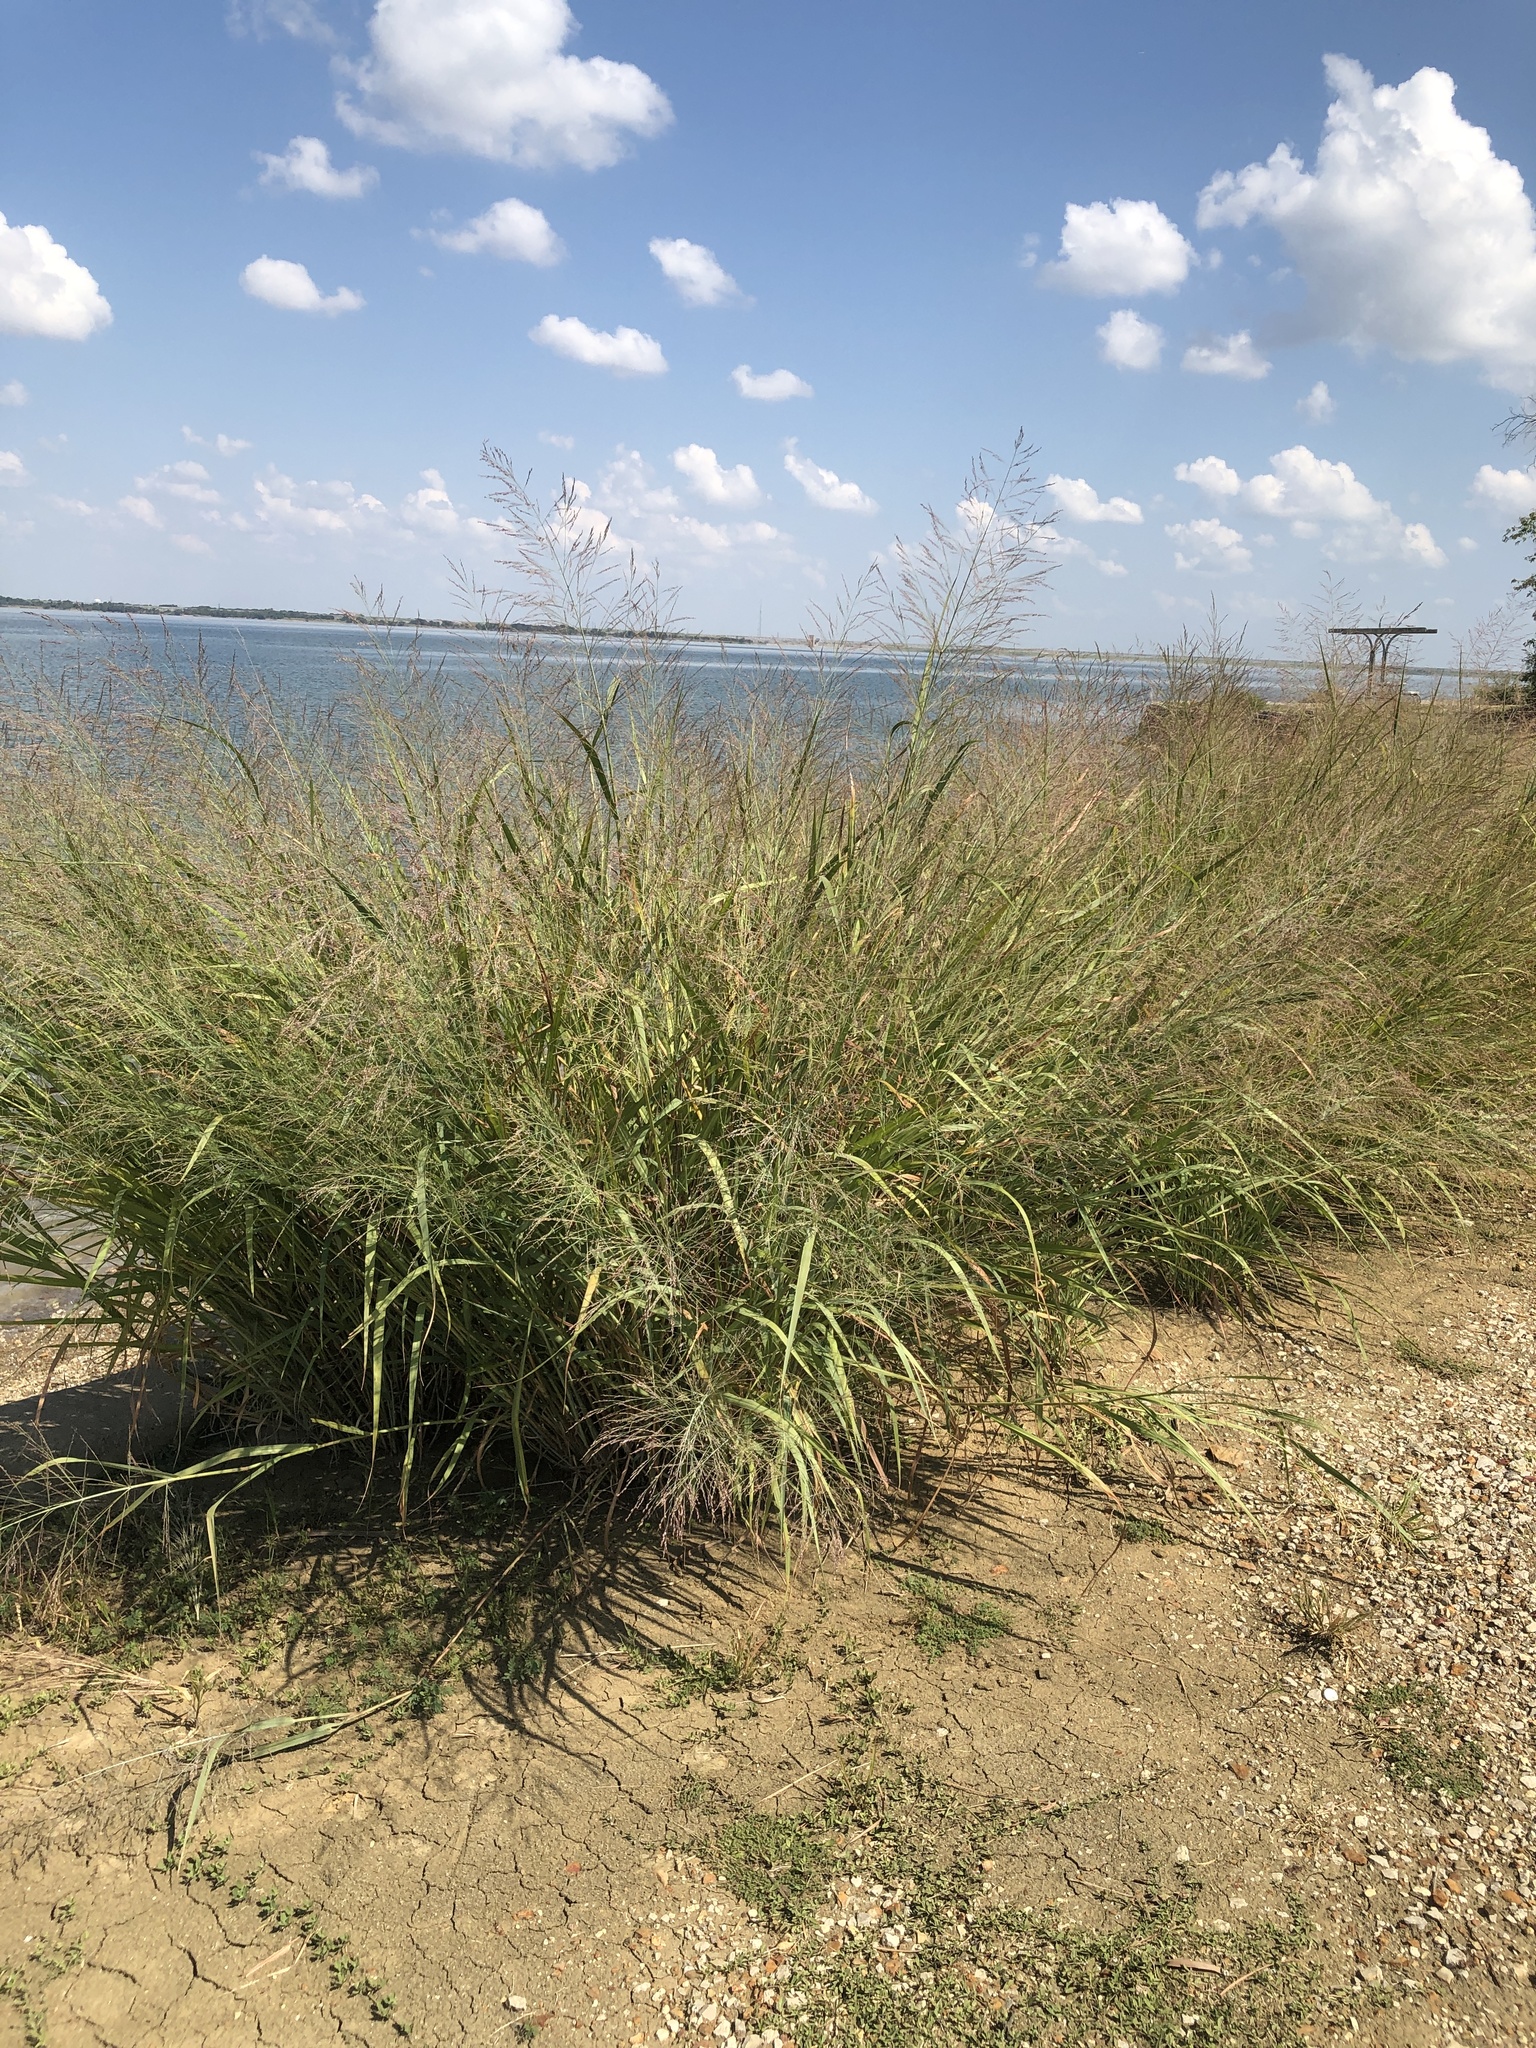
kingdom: Plantae
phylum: Tracheophyta
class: Liliopsida
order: Poales
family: Poaceae
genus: Panicum
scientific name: Panicum virgatum
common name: Switchgrass
